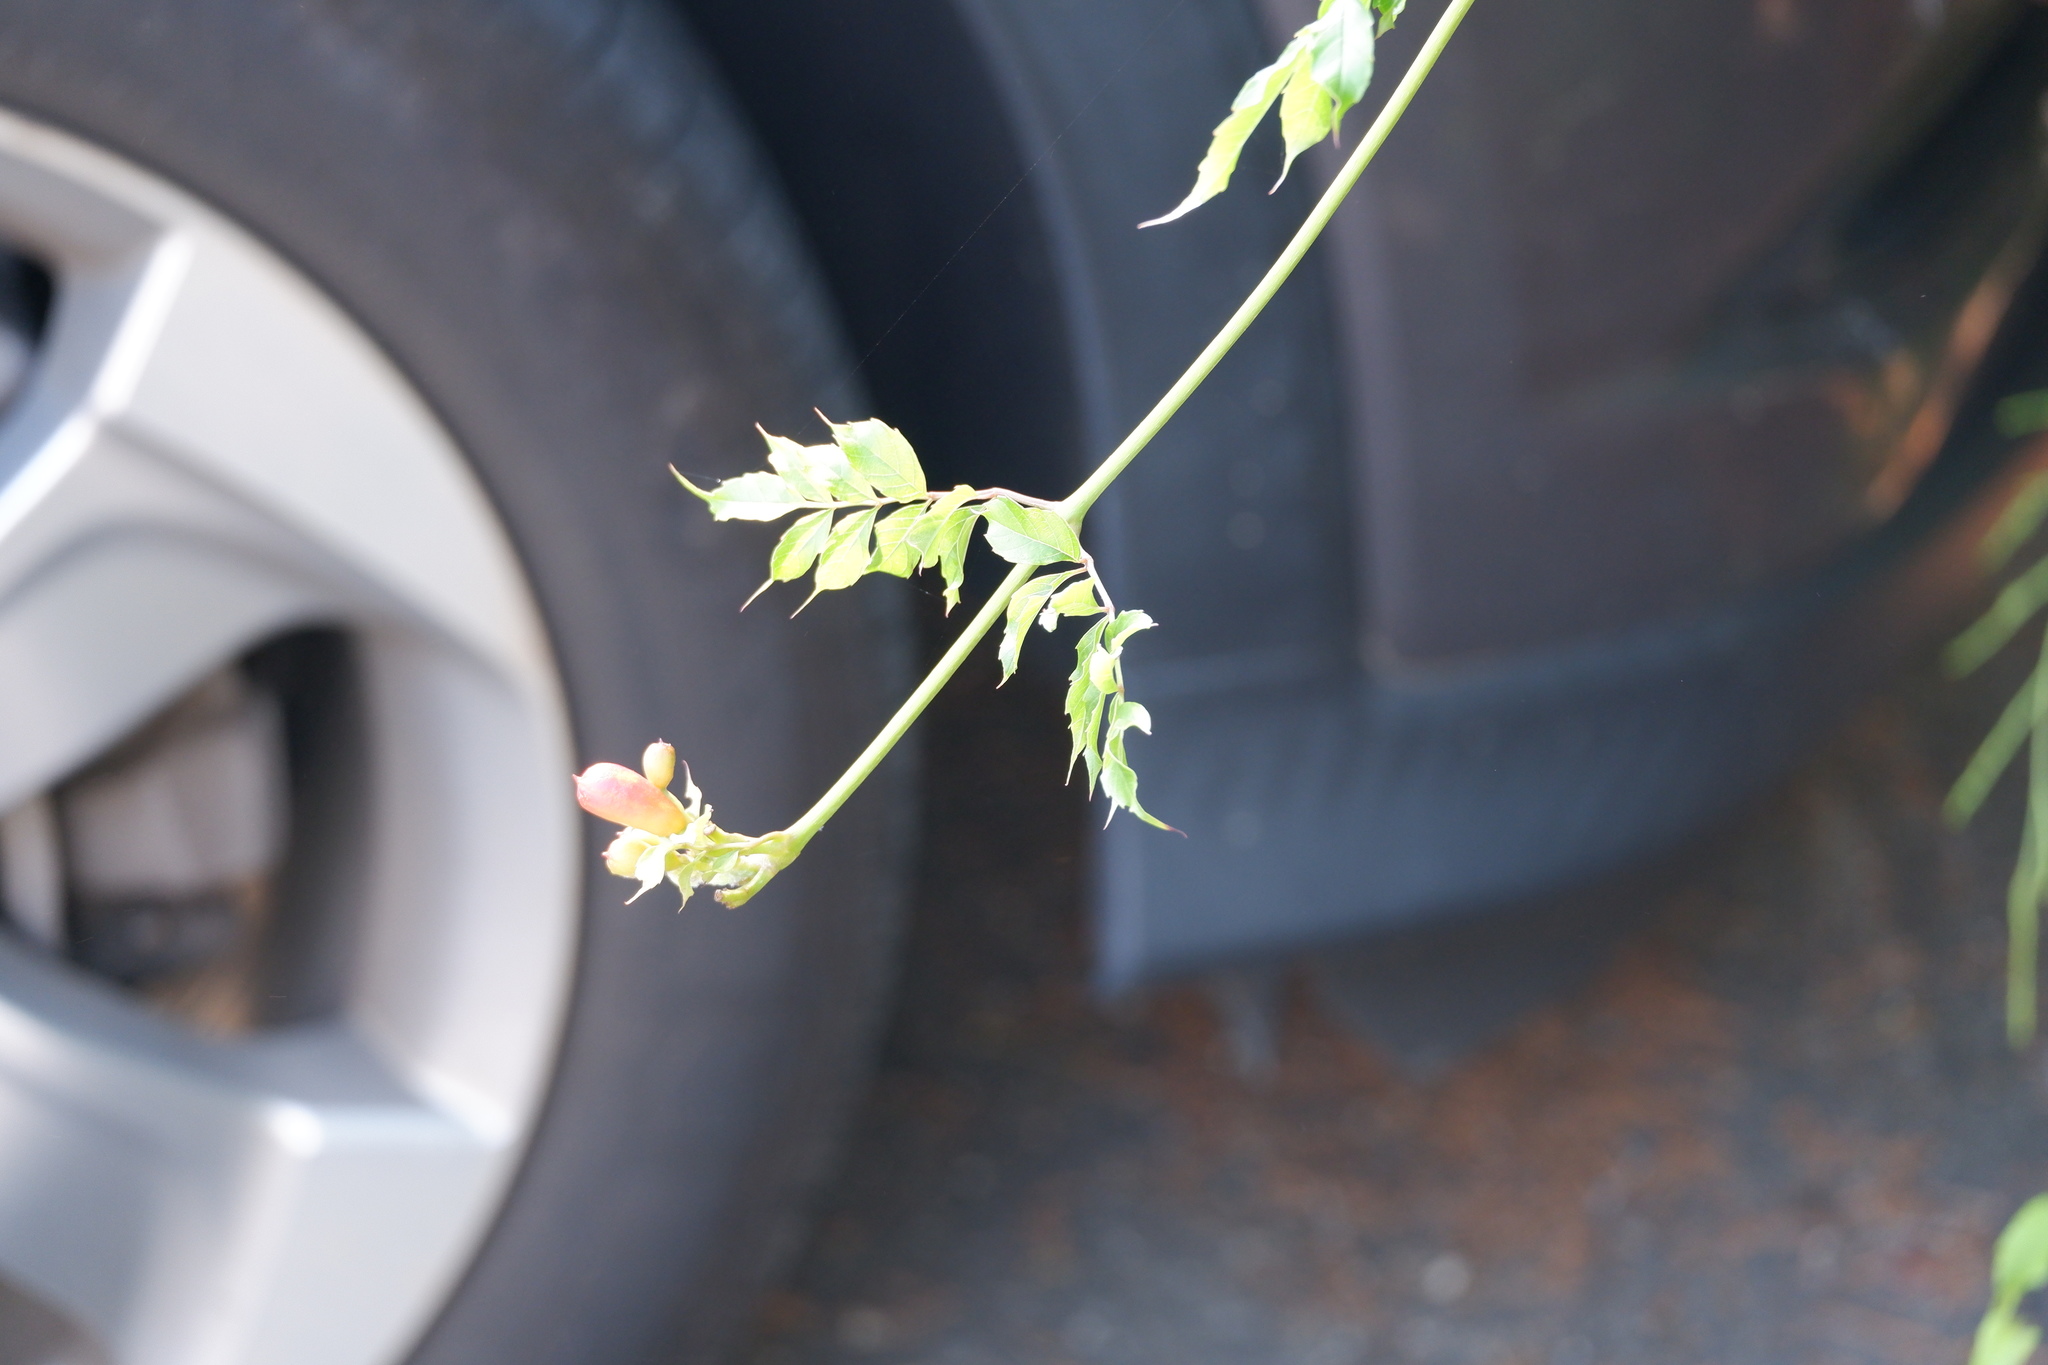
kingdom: Plantae
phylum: Tracheophyta
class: Magnoliopsida
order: Lamiales
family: Bignoniaceae
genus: Campsis
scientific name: Campsis radicans
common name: Trumpet-creeper
